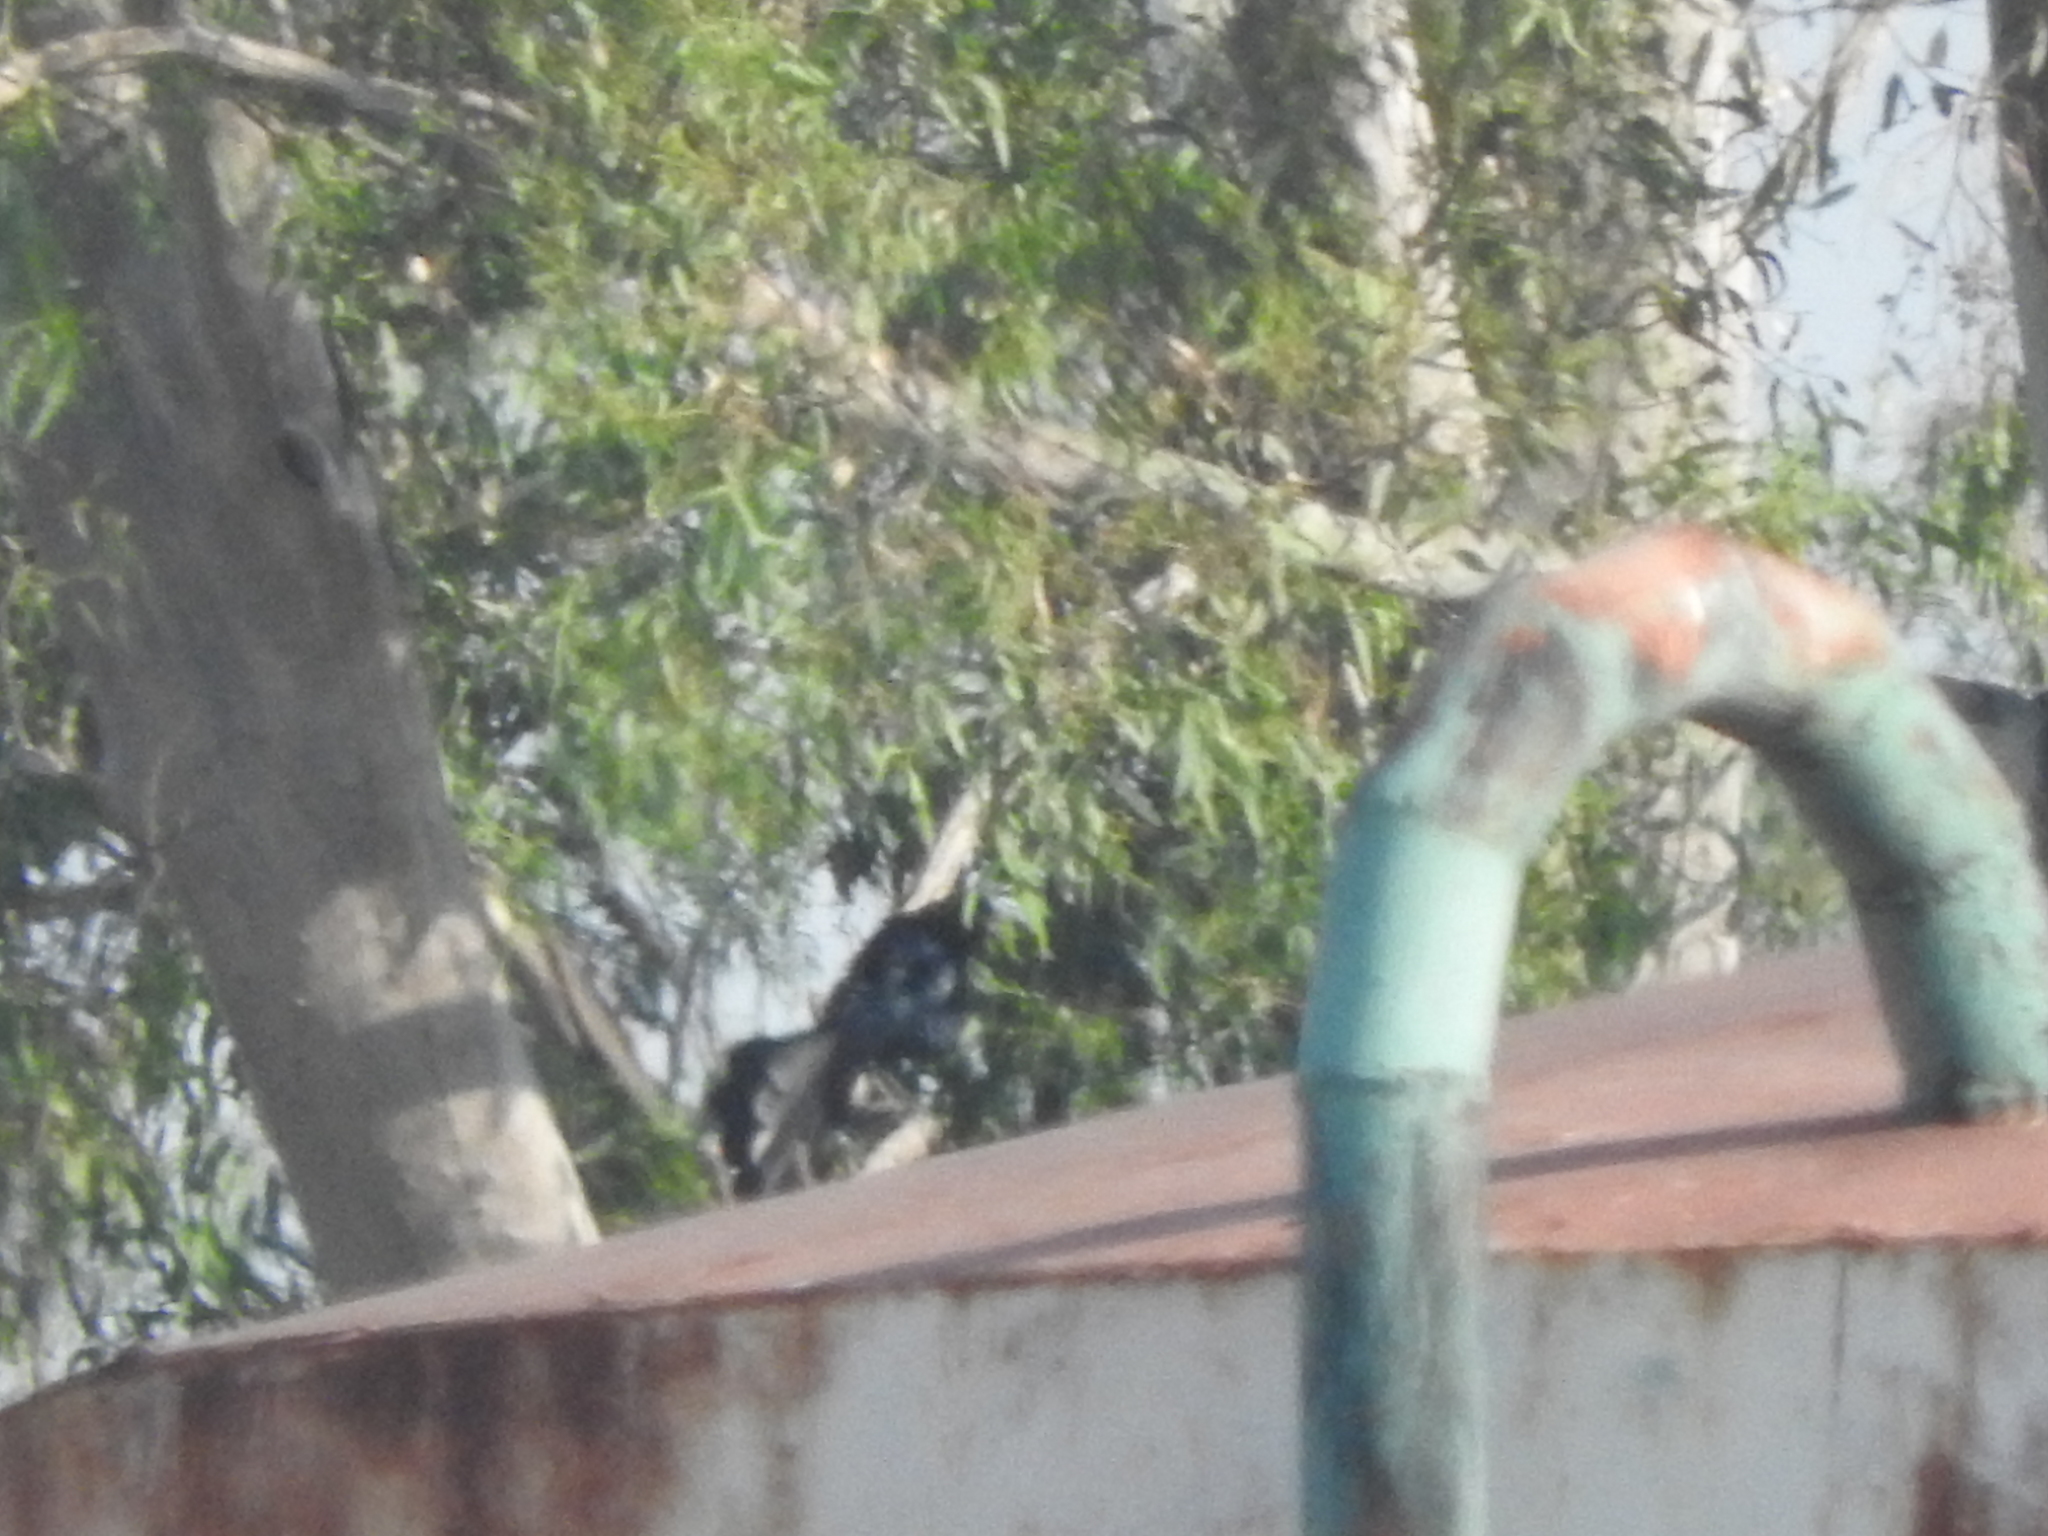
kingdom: Animalia
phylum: Chordata
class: Aves
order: Passeriformes
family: Icteridae
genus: Quiscalus
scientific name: Quiscalus mexicanus
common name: Great-tailed grackle
